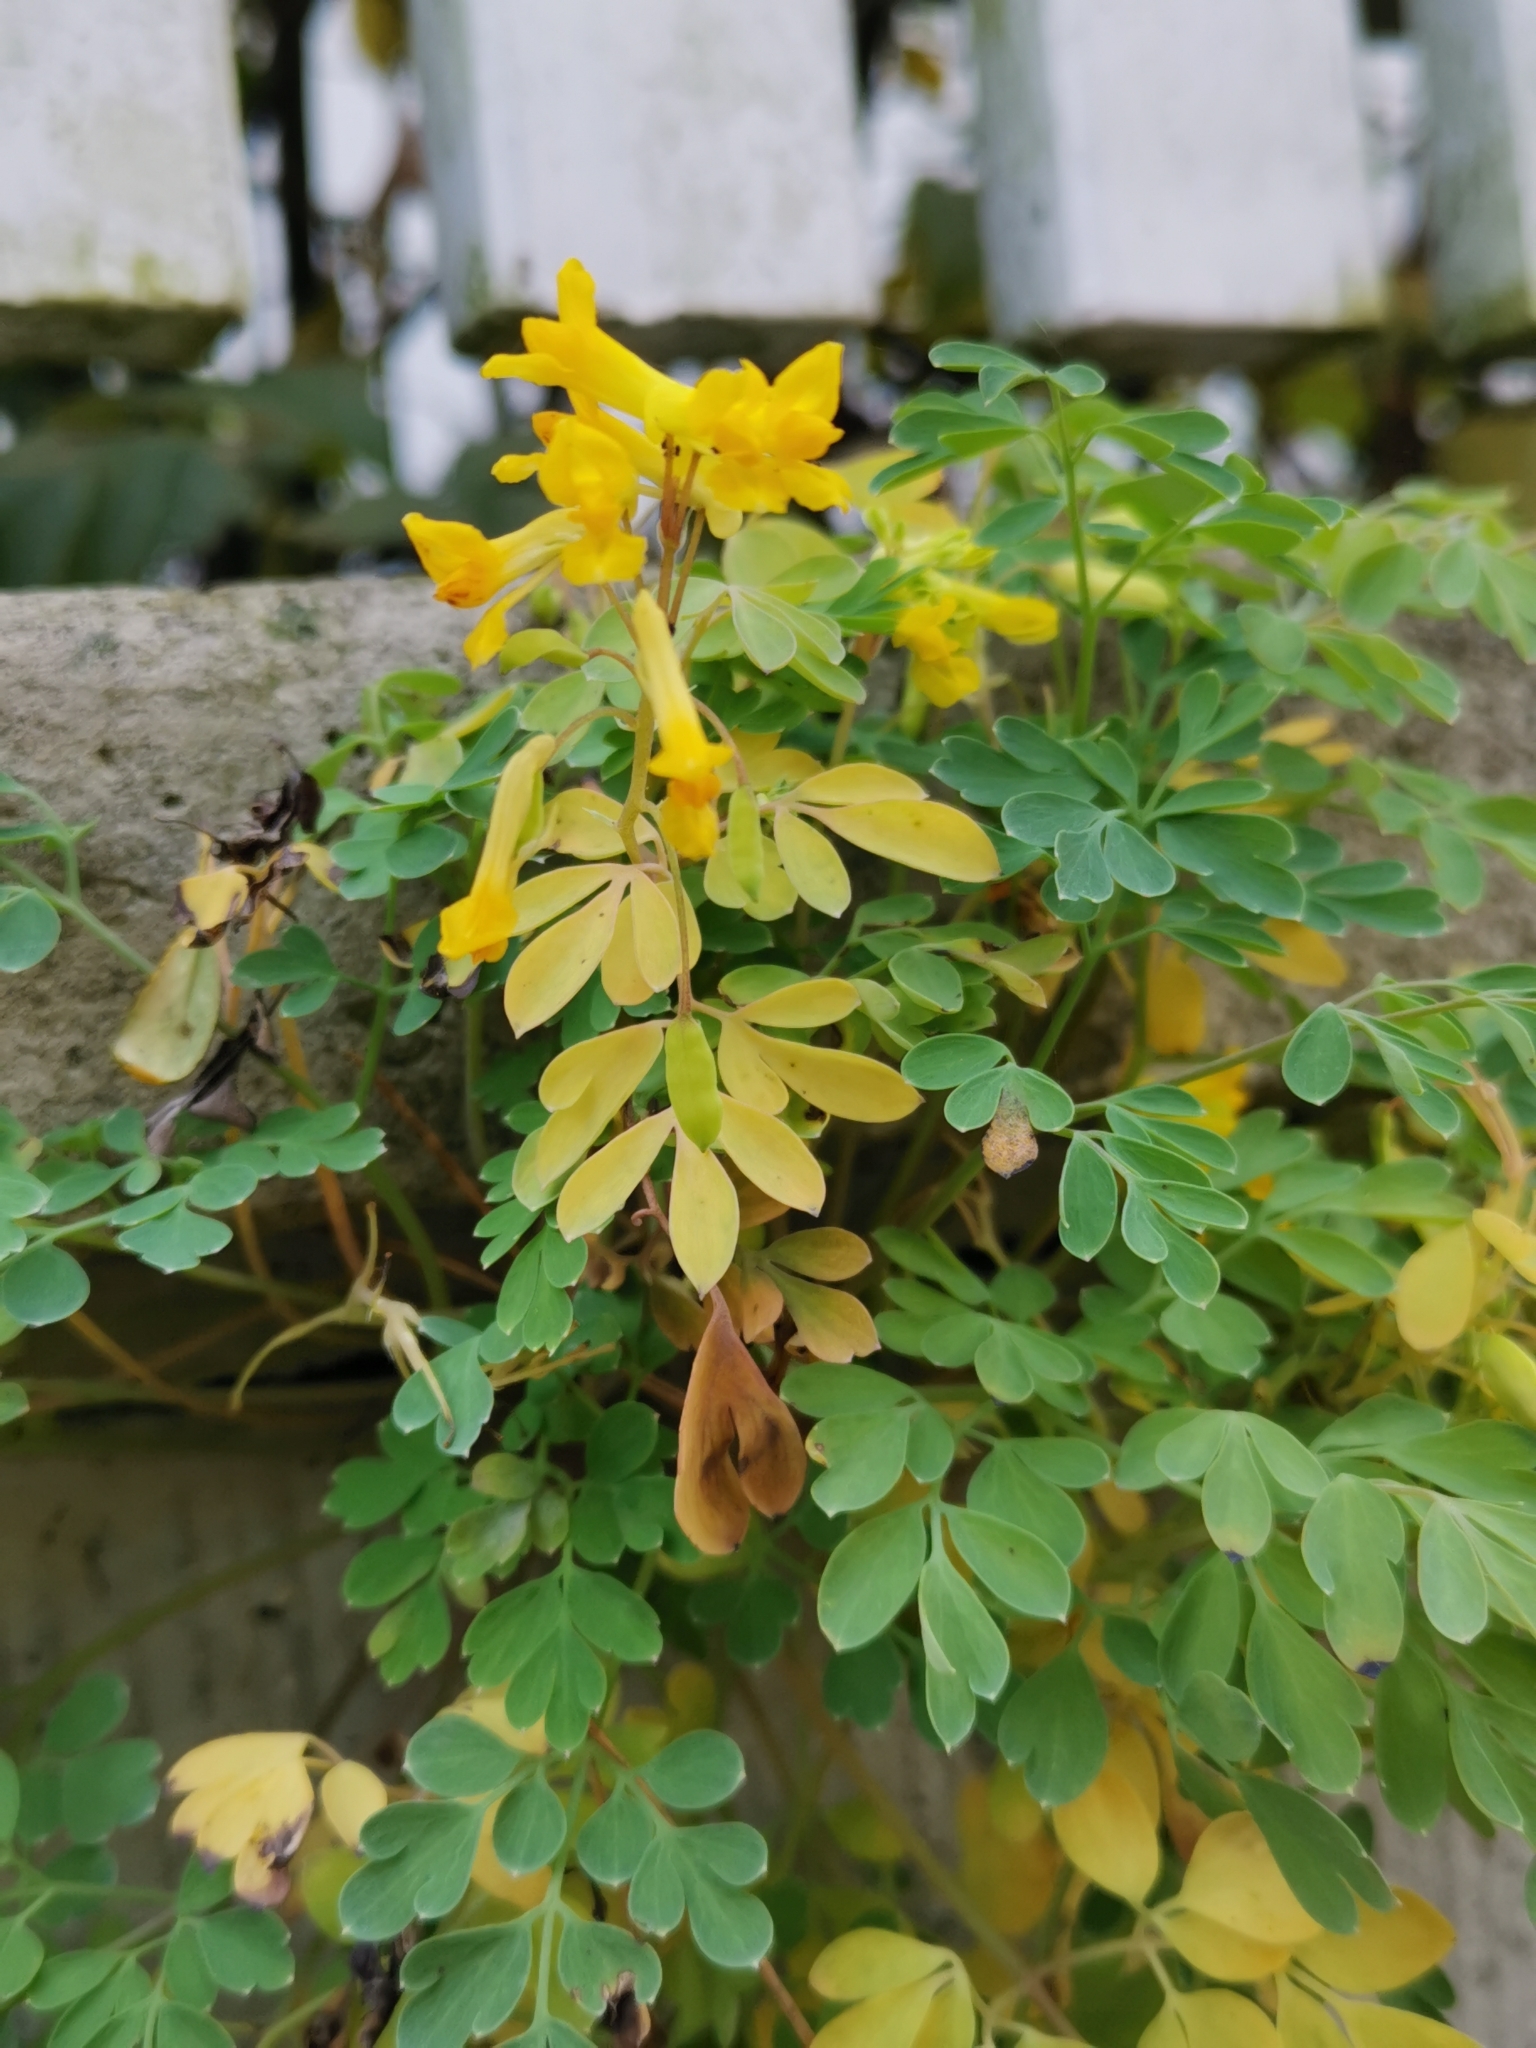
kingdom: Plantae
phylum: Tracheophyta
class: Magnoliopsida
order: Ranunculales
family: Papaveraceae
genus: Pseudofumaria
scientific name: Pseudofumaria lutea
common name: Yellow corydalis
